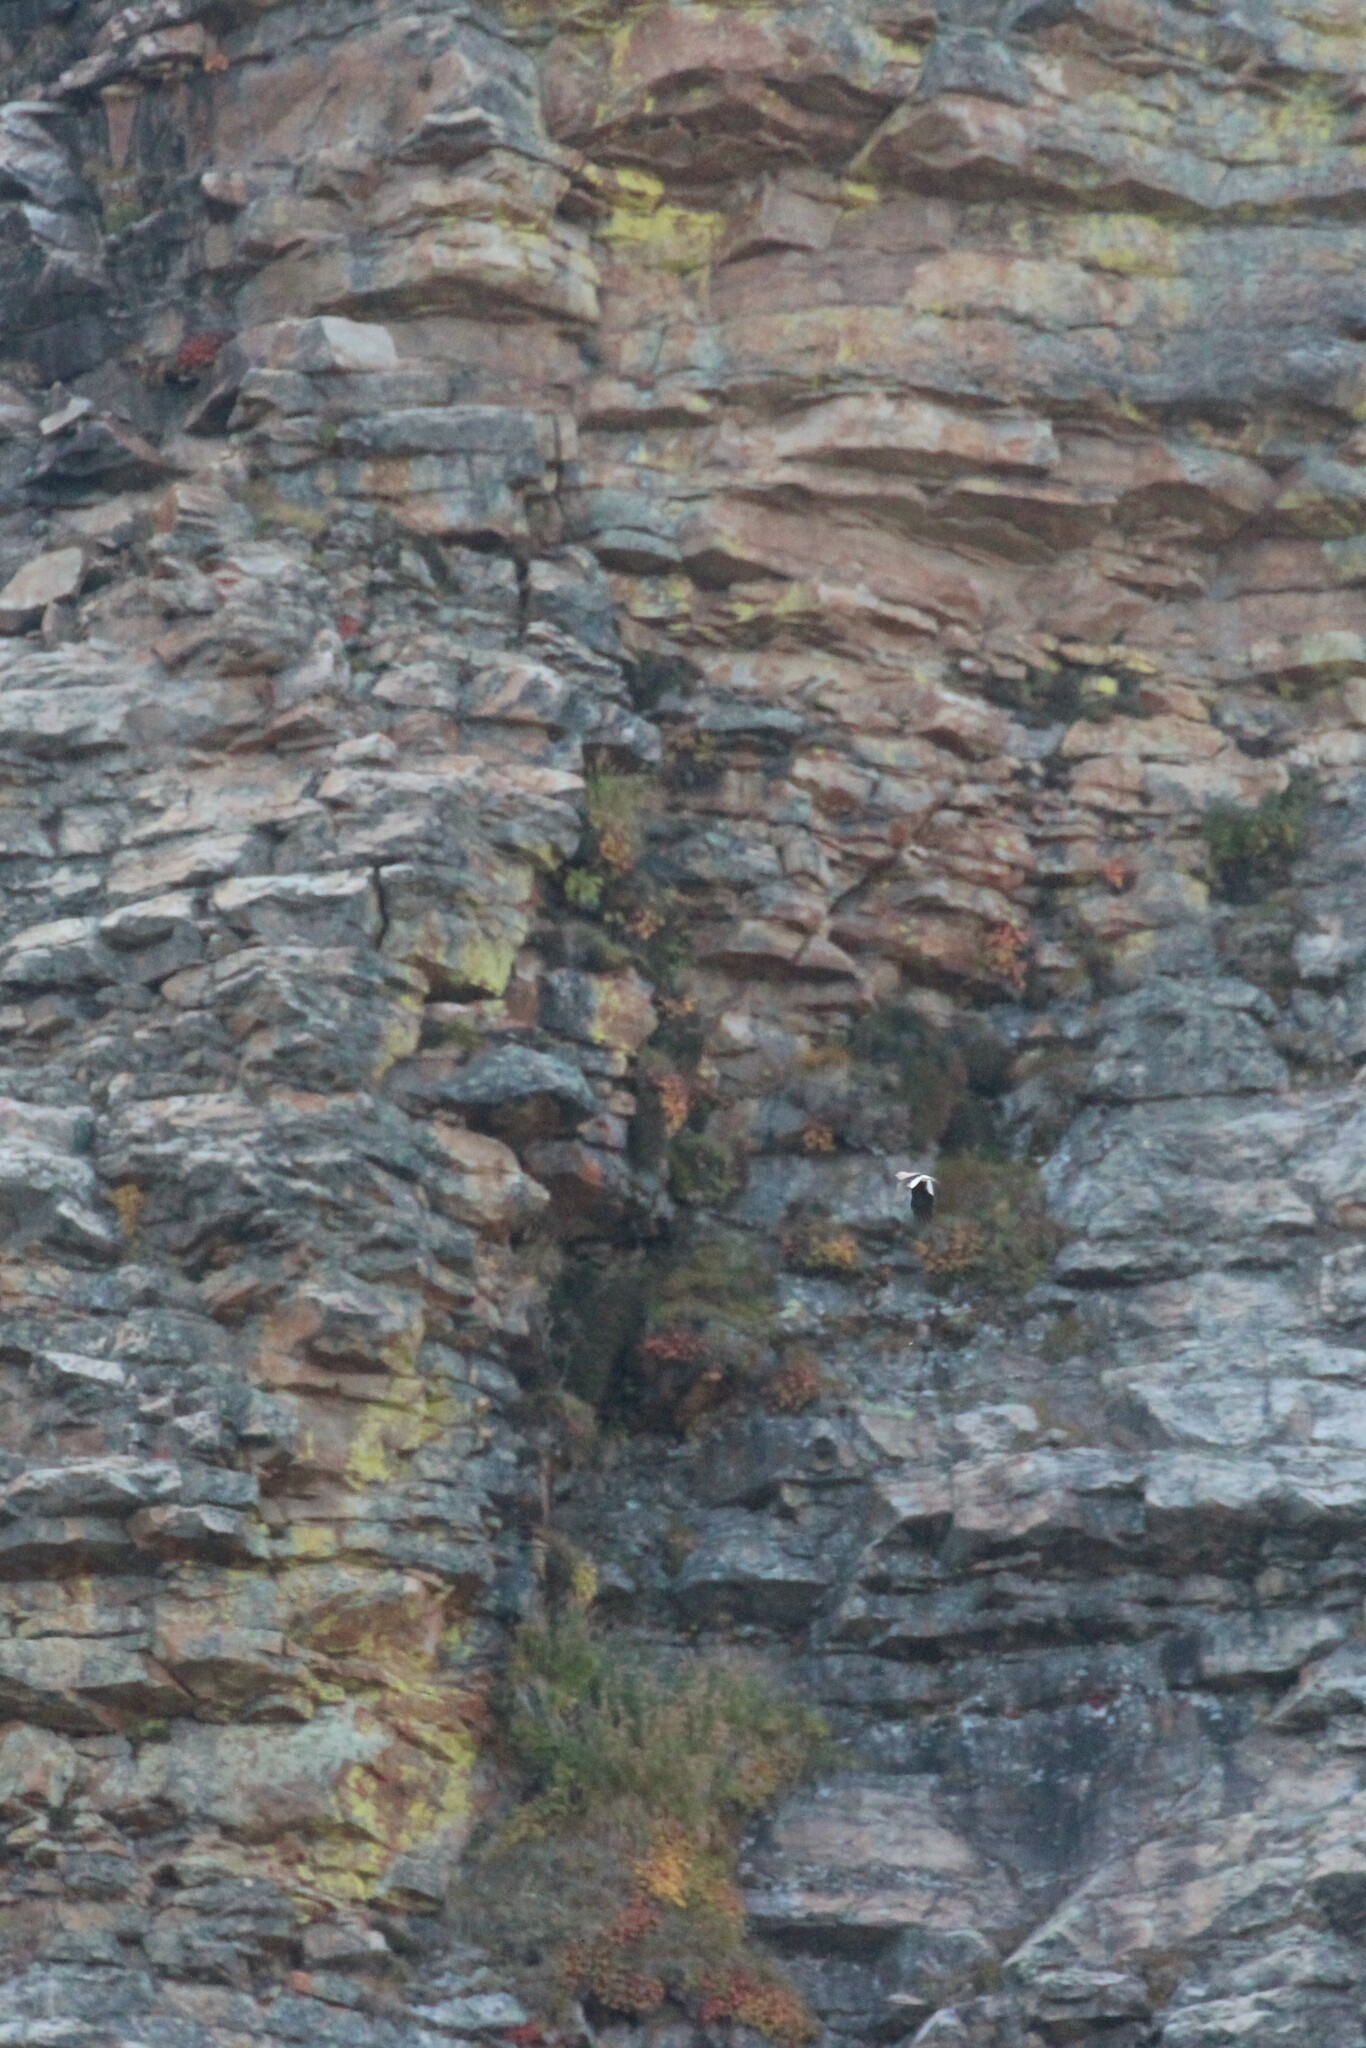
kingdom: Animalia
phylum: Chordata
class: Aves
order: Passeriformes
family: Corvidae
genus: Nucifraga
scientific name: Nucifraga columbiana
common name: Clark's nutcracker
